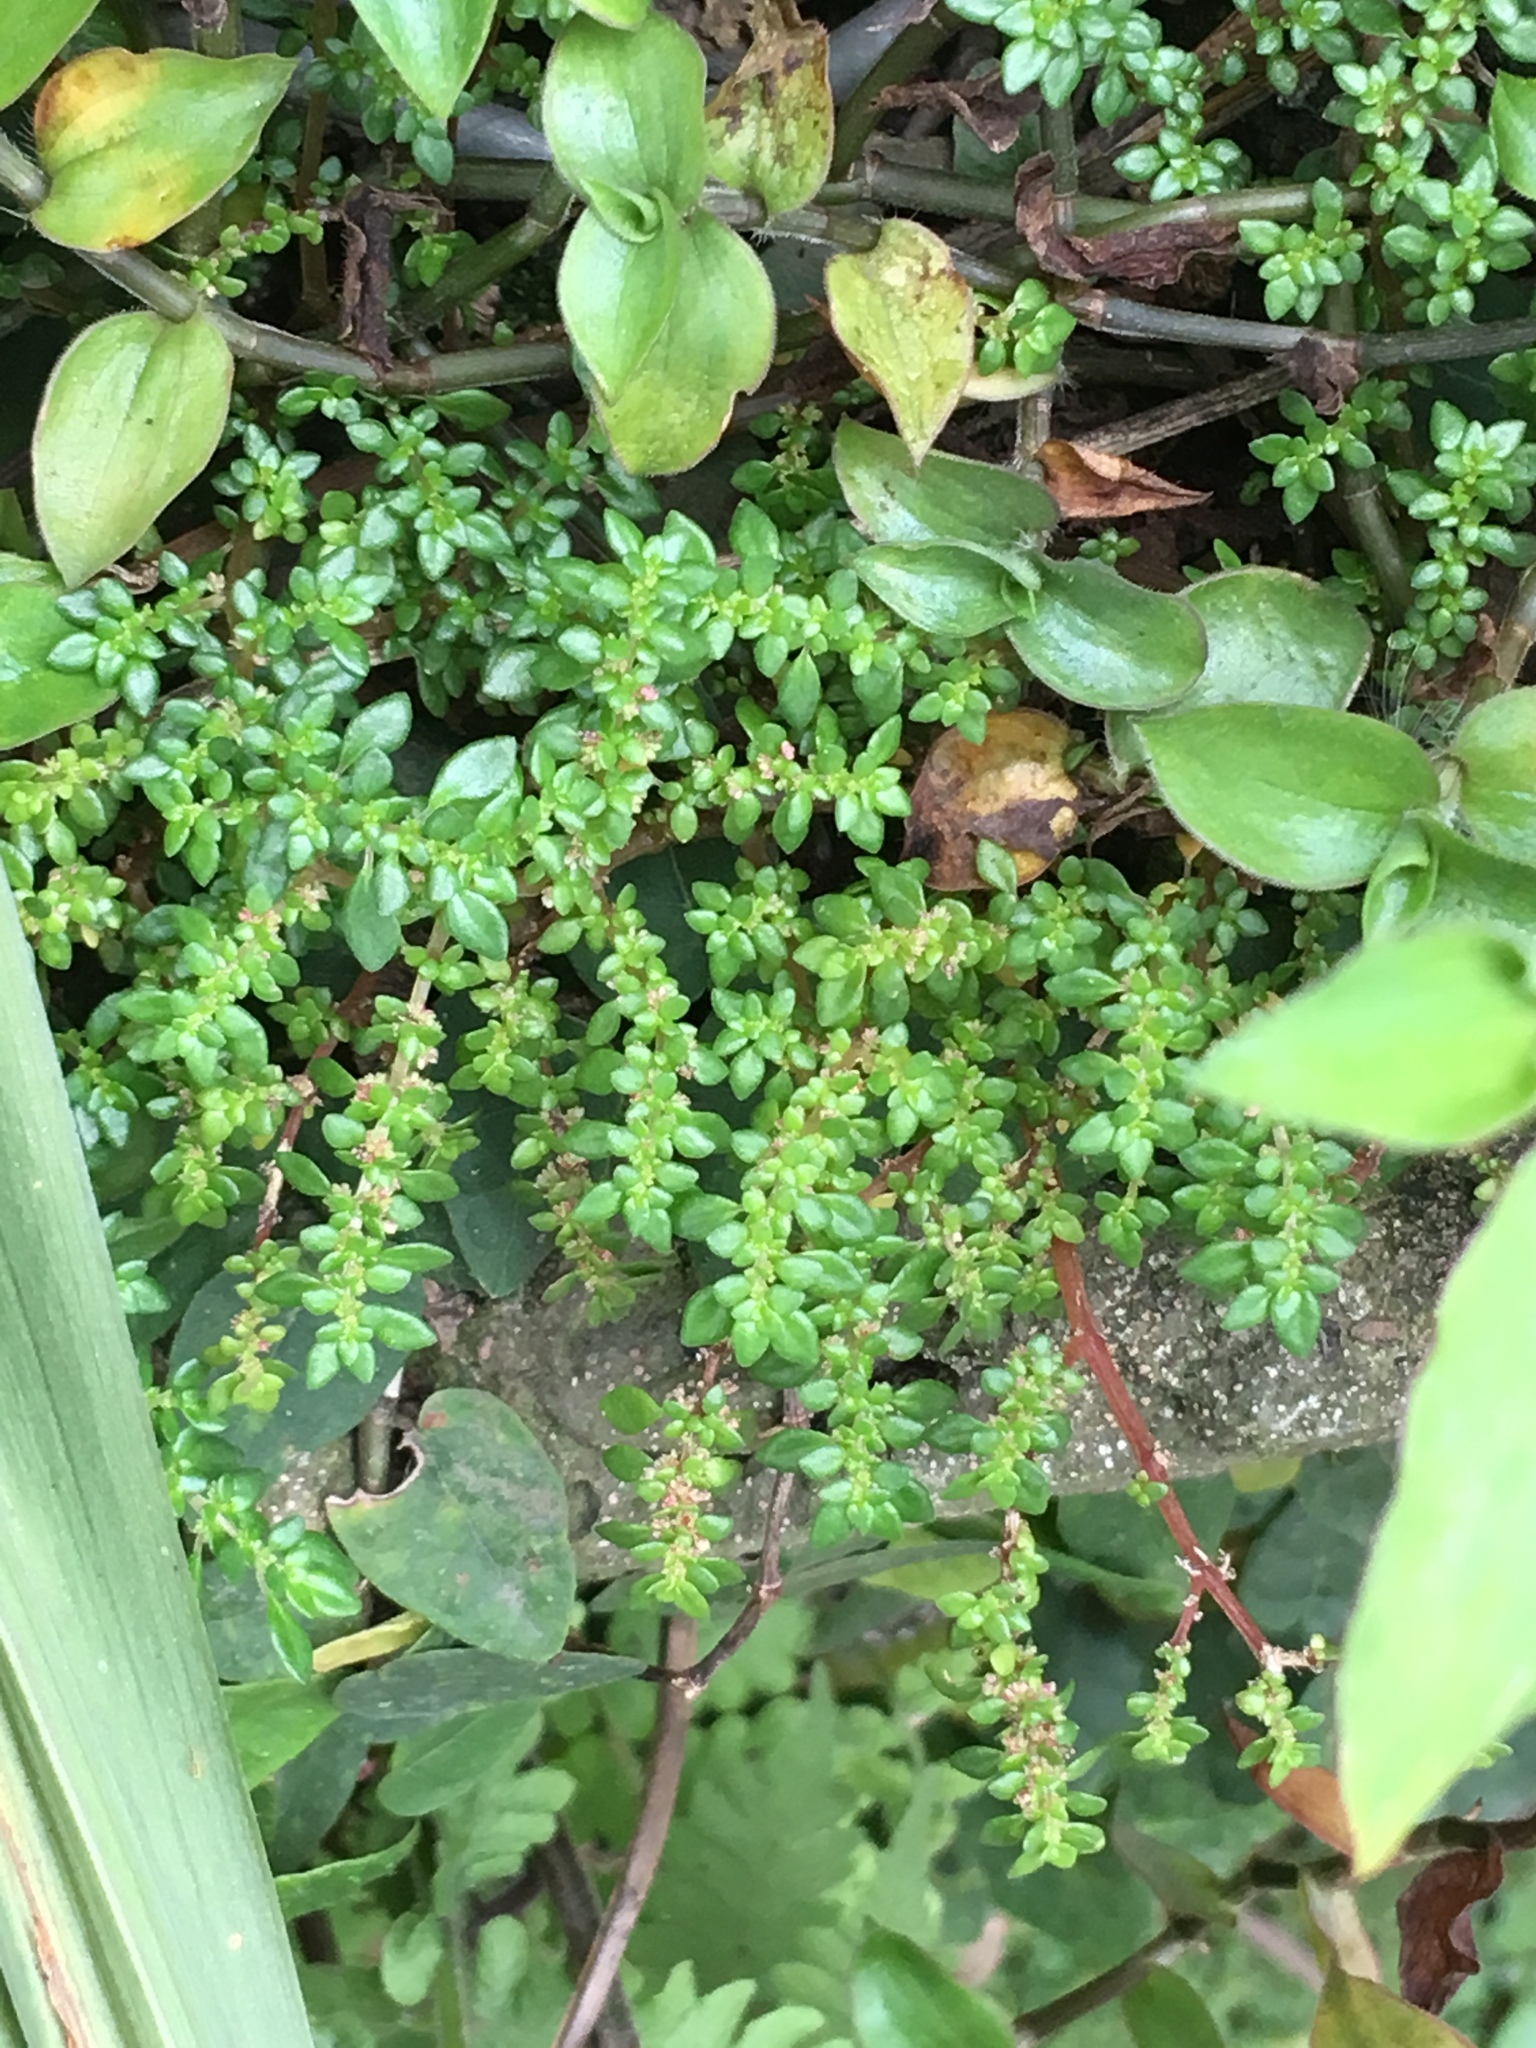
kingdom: Plantae
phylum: Tracheophyta
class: Magnoliopsida
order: Rosales
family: Urticaceae
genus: Pilea
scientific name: Pilea microphylla
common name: Artillery-plant
